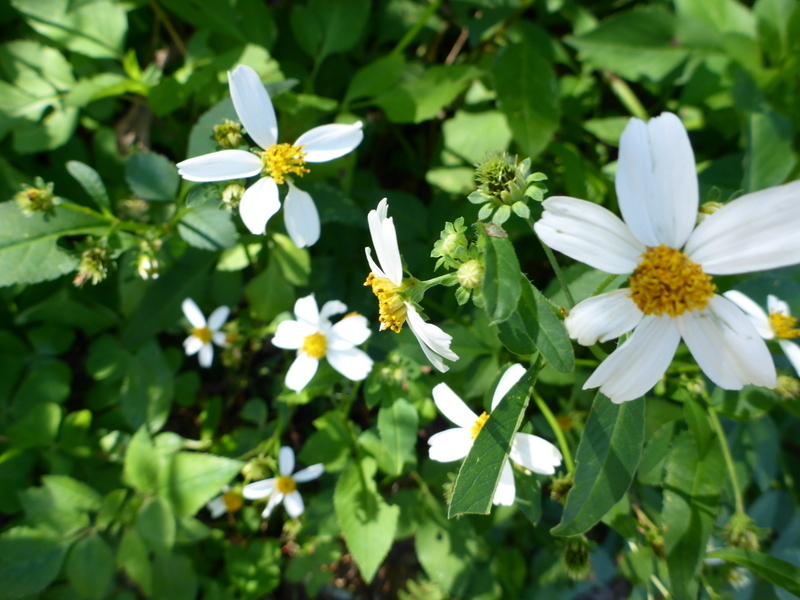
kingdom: Plantae
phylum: Tracheophyta
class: Magnoliopsida
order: Asterales
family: Asteraceae
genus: Bidens
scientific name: Bidens alba
